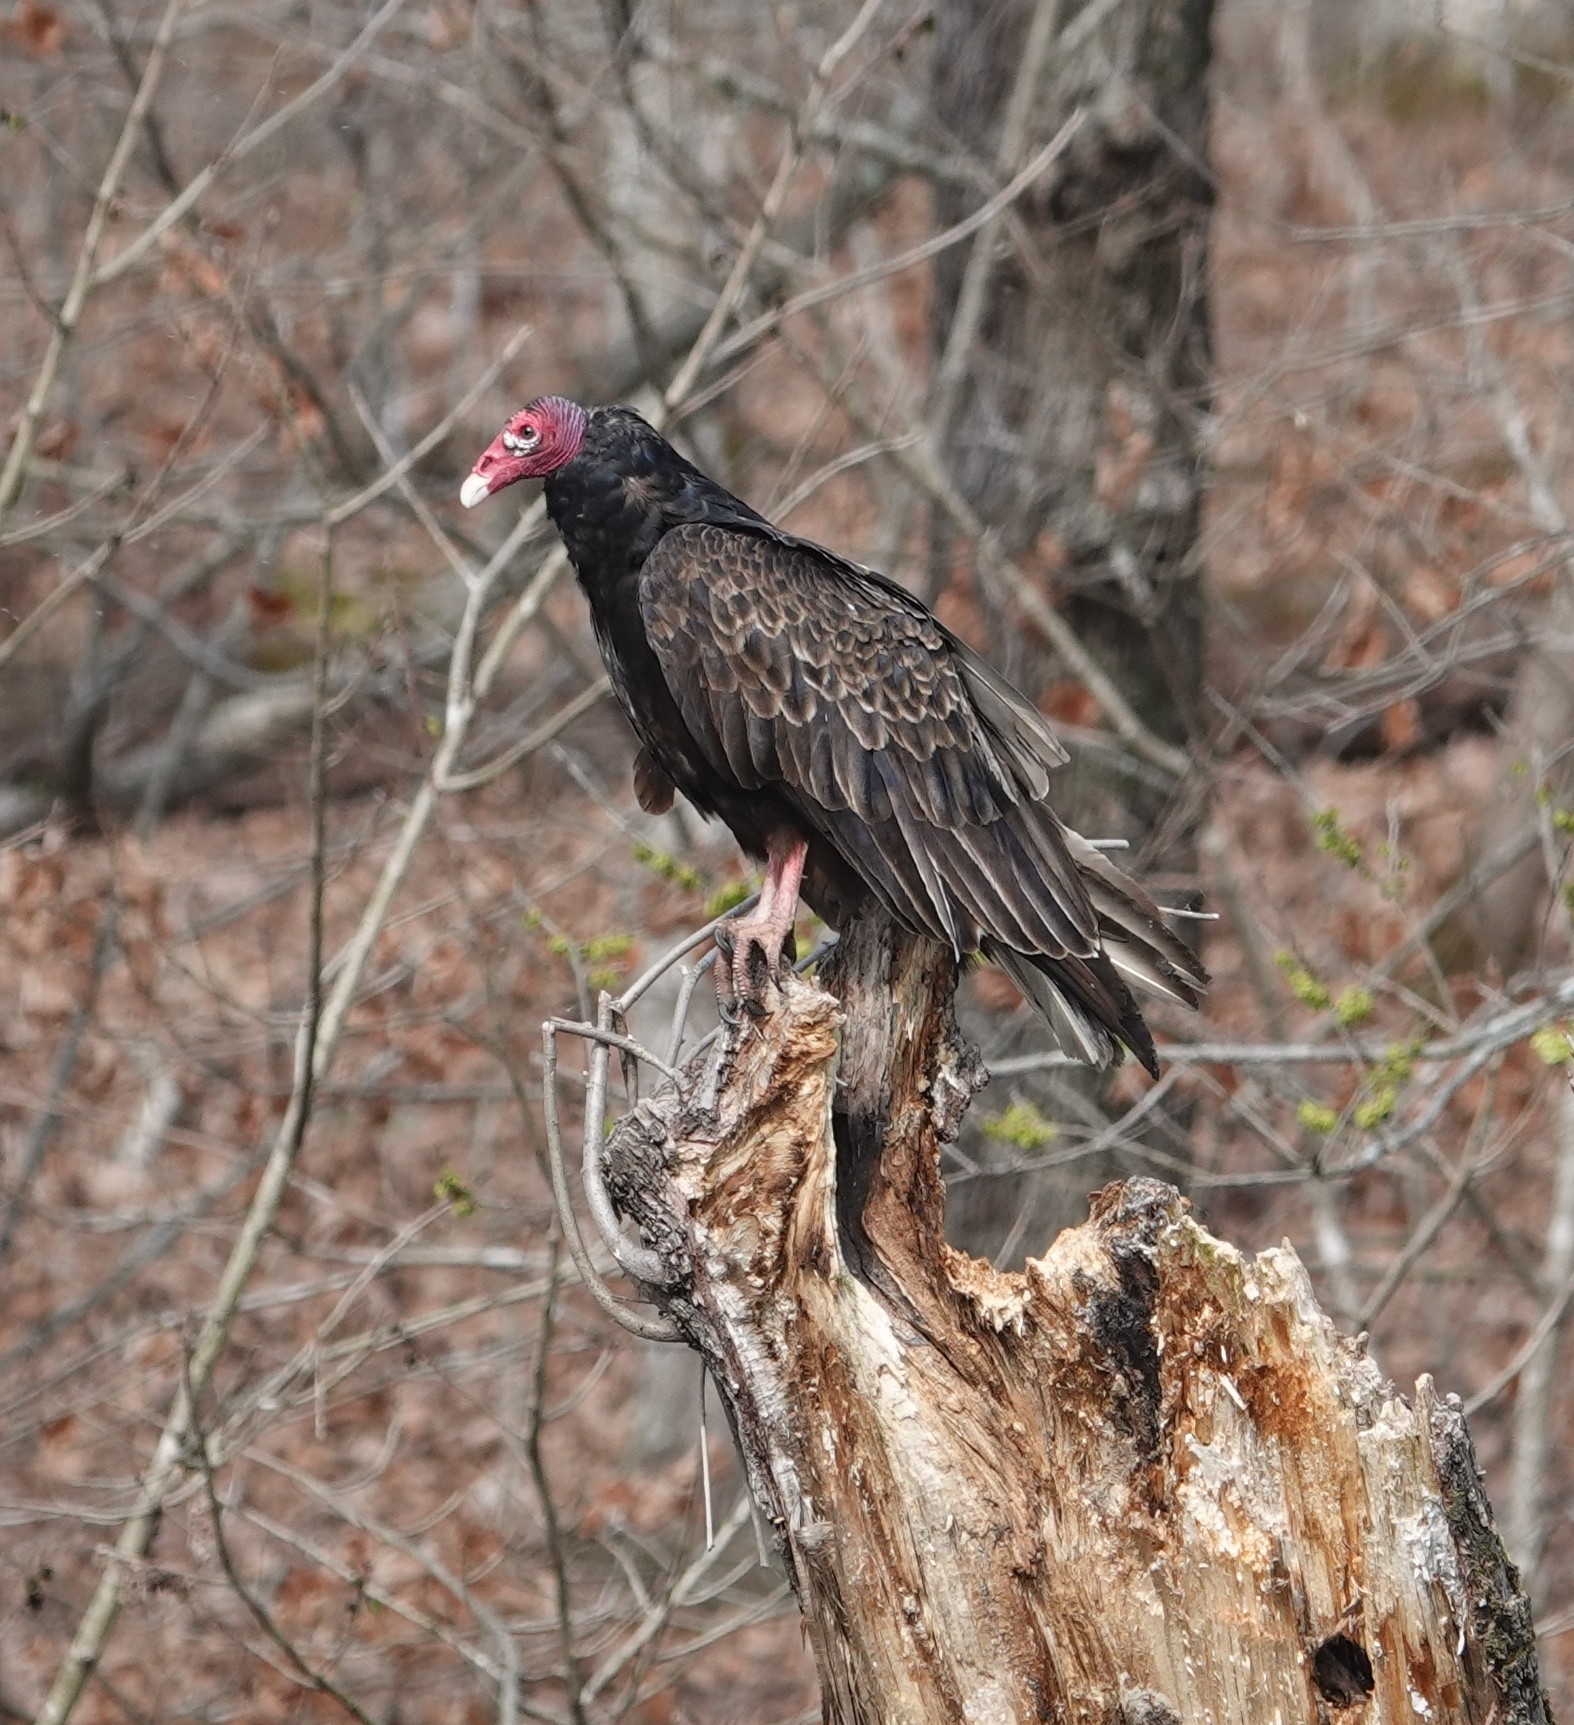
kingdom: Animalia
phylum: Chordata
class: Aves
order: Accipitriformes
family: Cathartidae
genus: Cathartes
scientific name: Cathartes aura
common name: Turkey vulture
